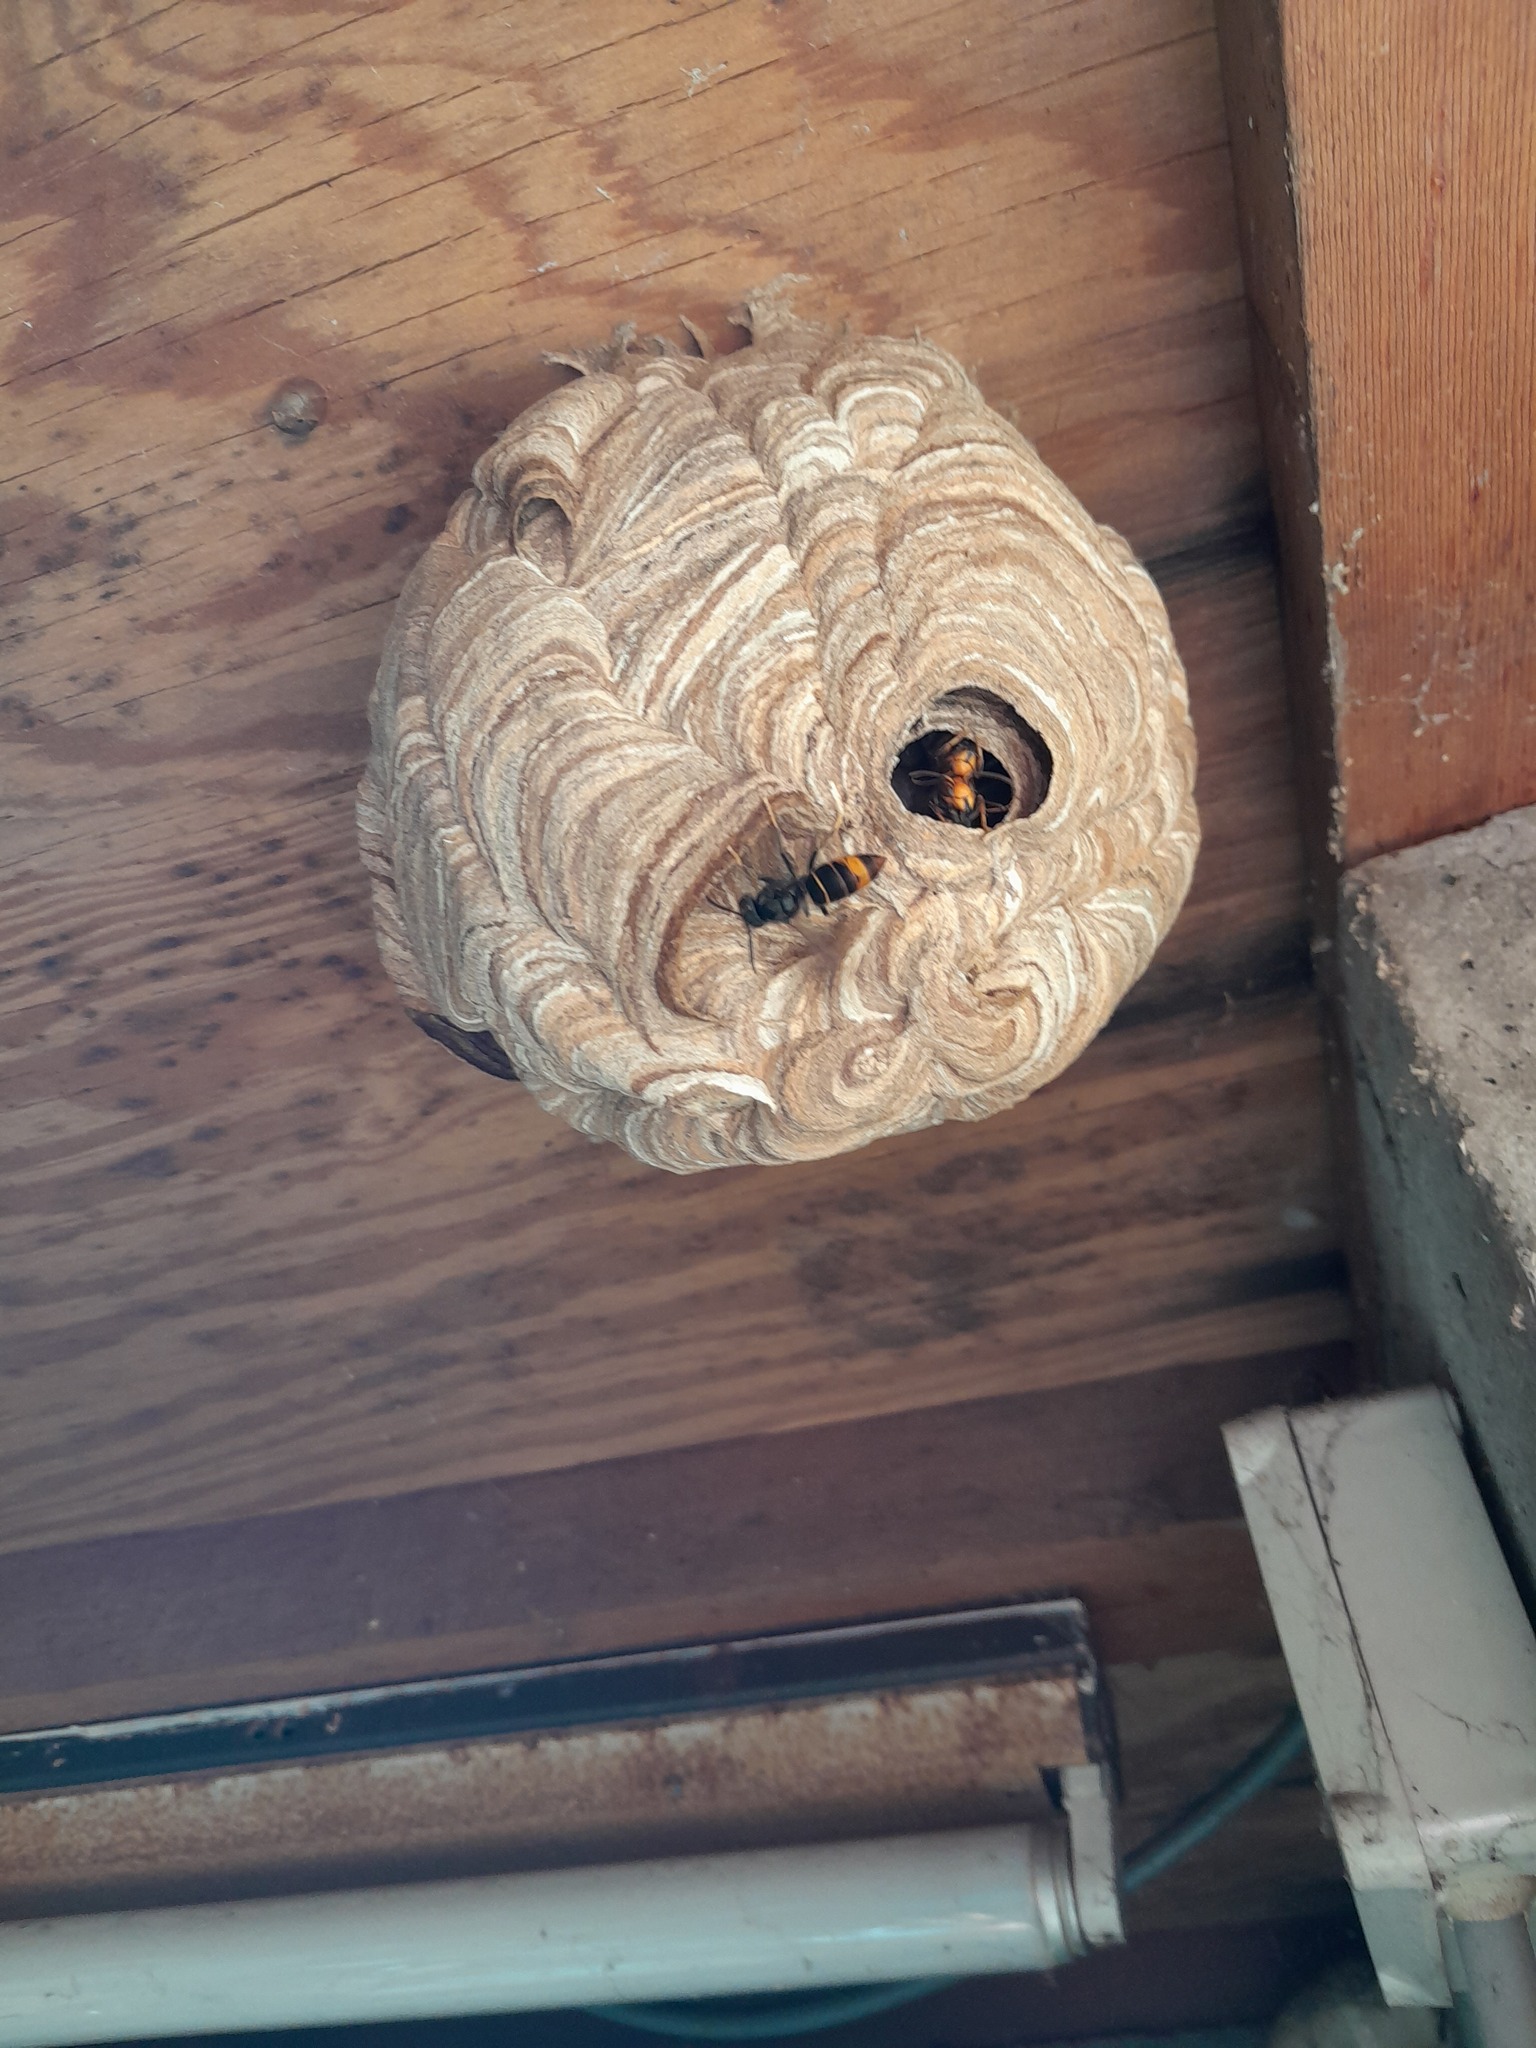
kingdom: Animalia
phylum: Arthropoda
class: Insecta
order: Hymenoptera
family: Vespidae
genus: Vespa
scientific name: Vespa velutina
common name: Asian hornet
